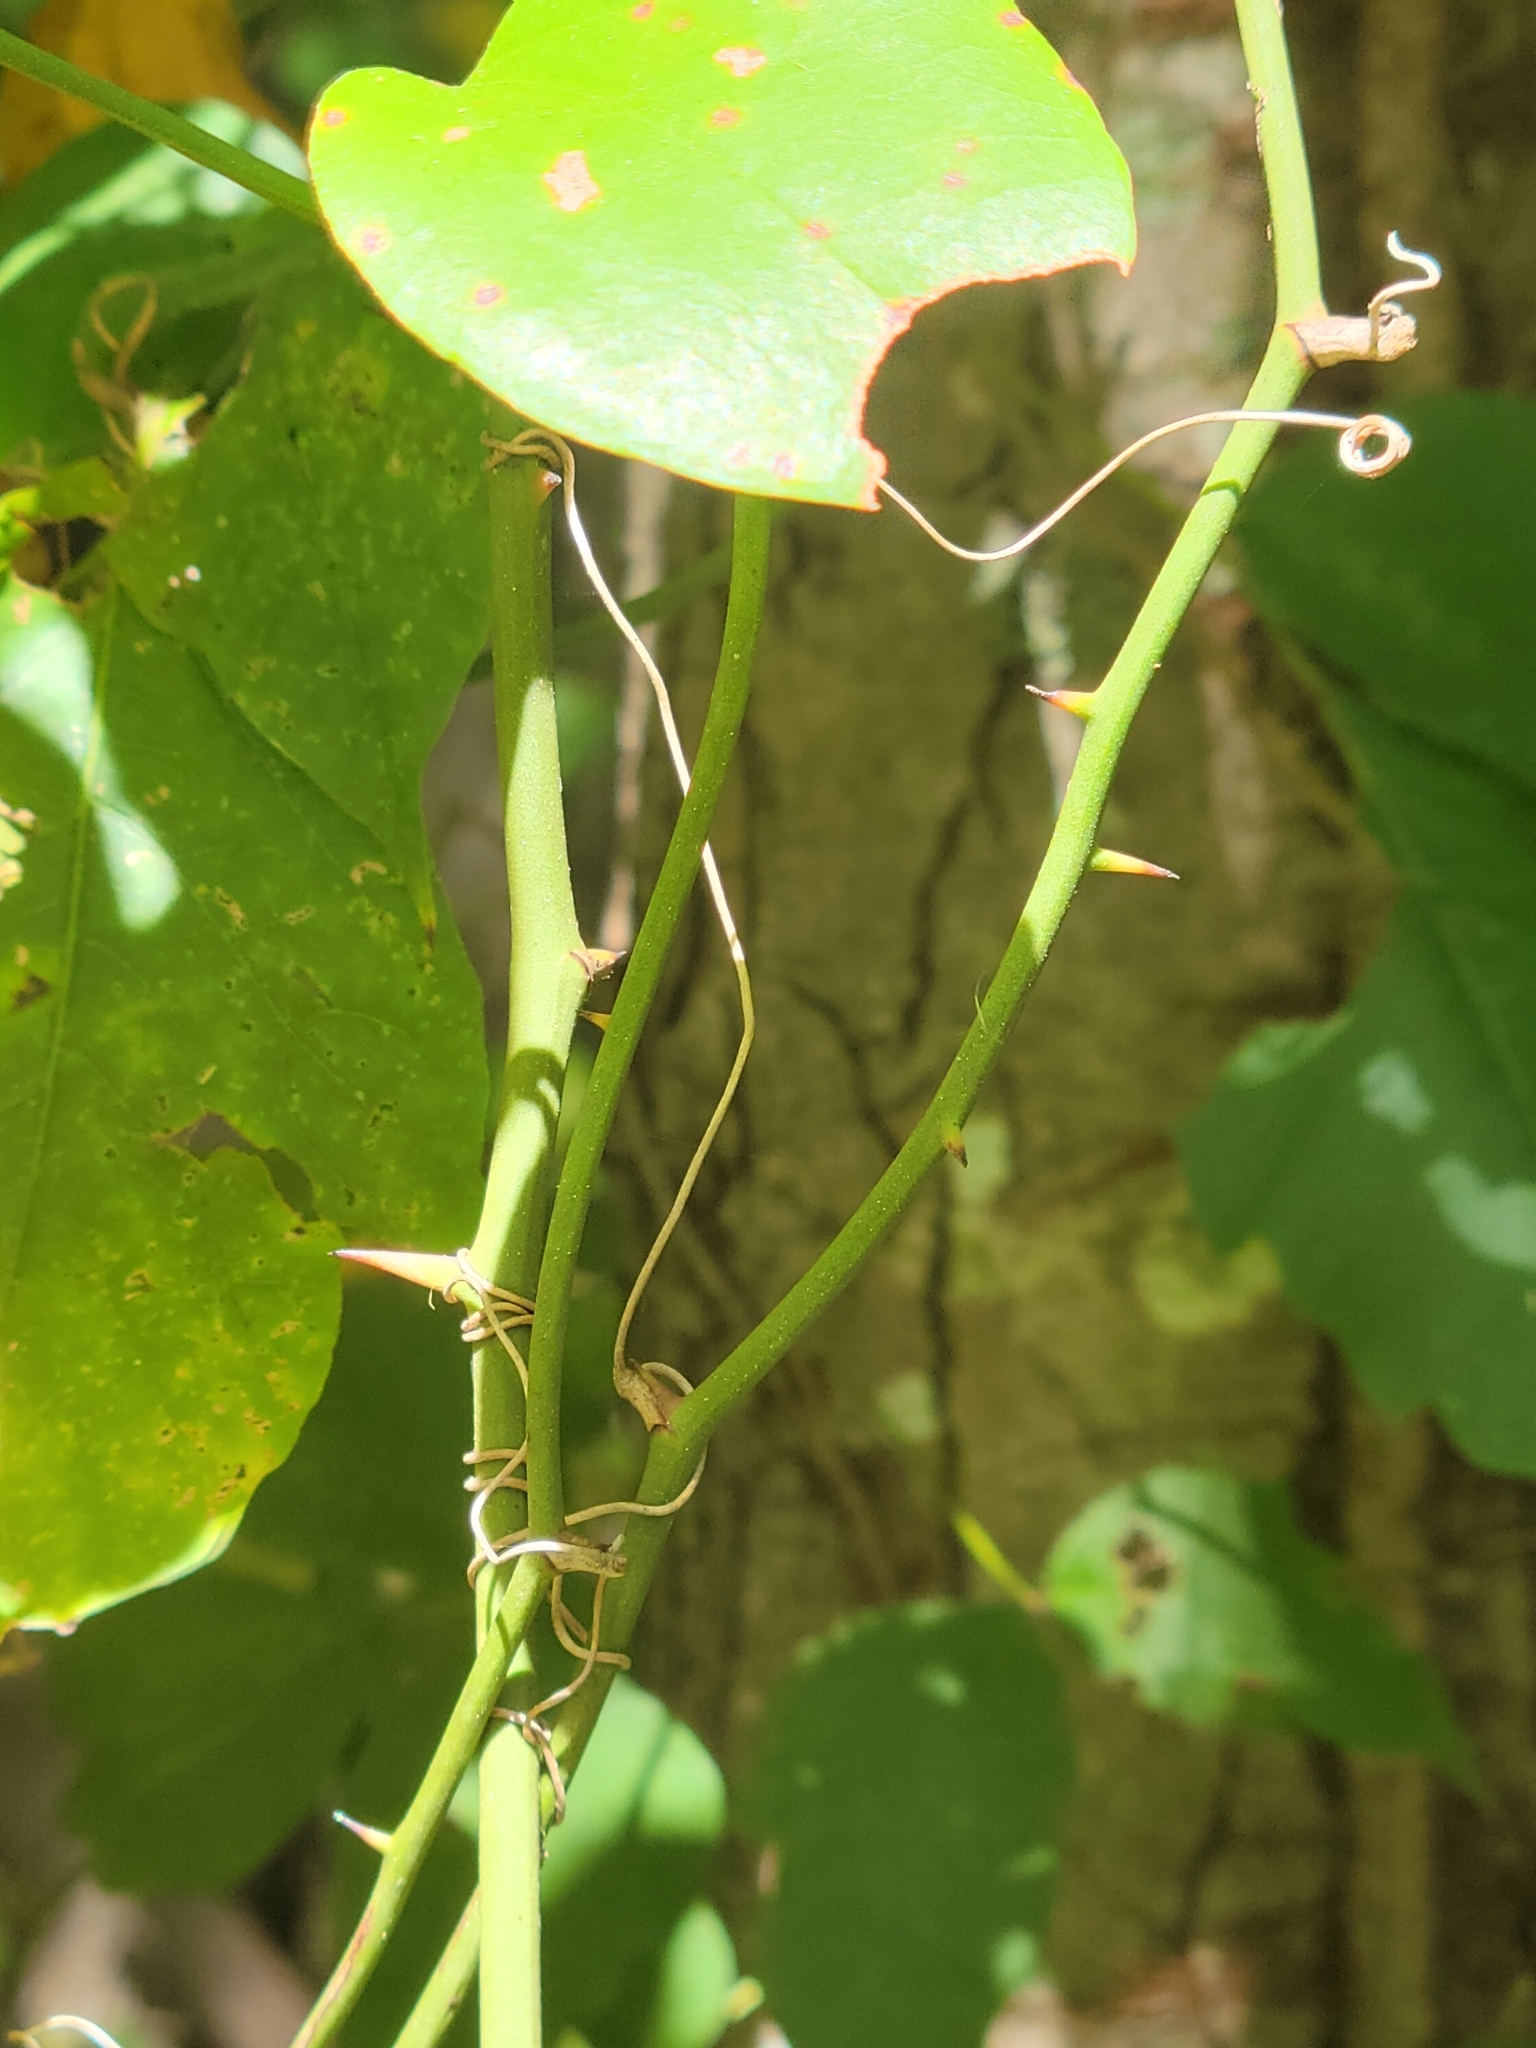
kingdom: Plantae
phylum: Tracheophyta
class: Liliopsida
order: Liliales
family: Smilacaceae
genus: Smilax
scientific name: Smilax rotundifolia
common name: Bullbriar
